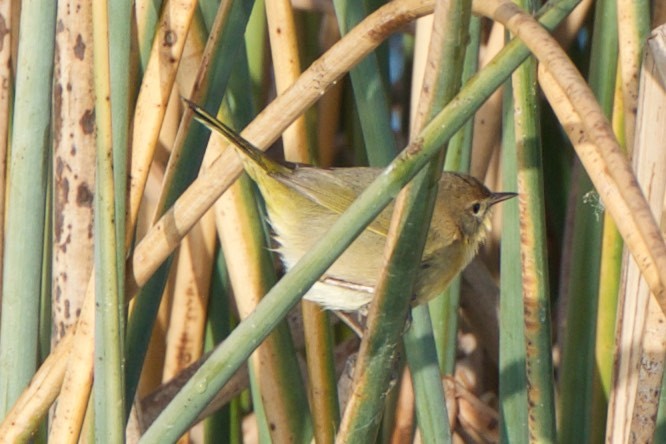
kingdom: Animalia
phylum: Chordata
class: Aves
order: Passeriformes
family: Parulidae
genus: Geothlypis
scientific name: Geothlypis trichas
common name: Common yellowthroat
